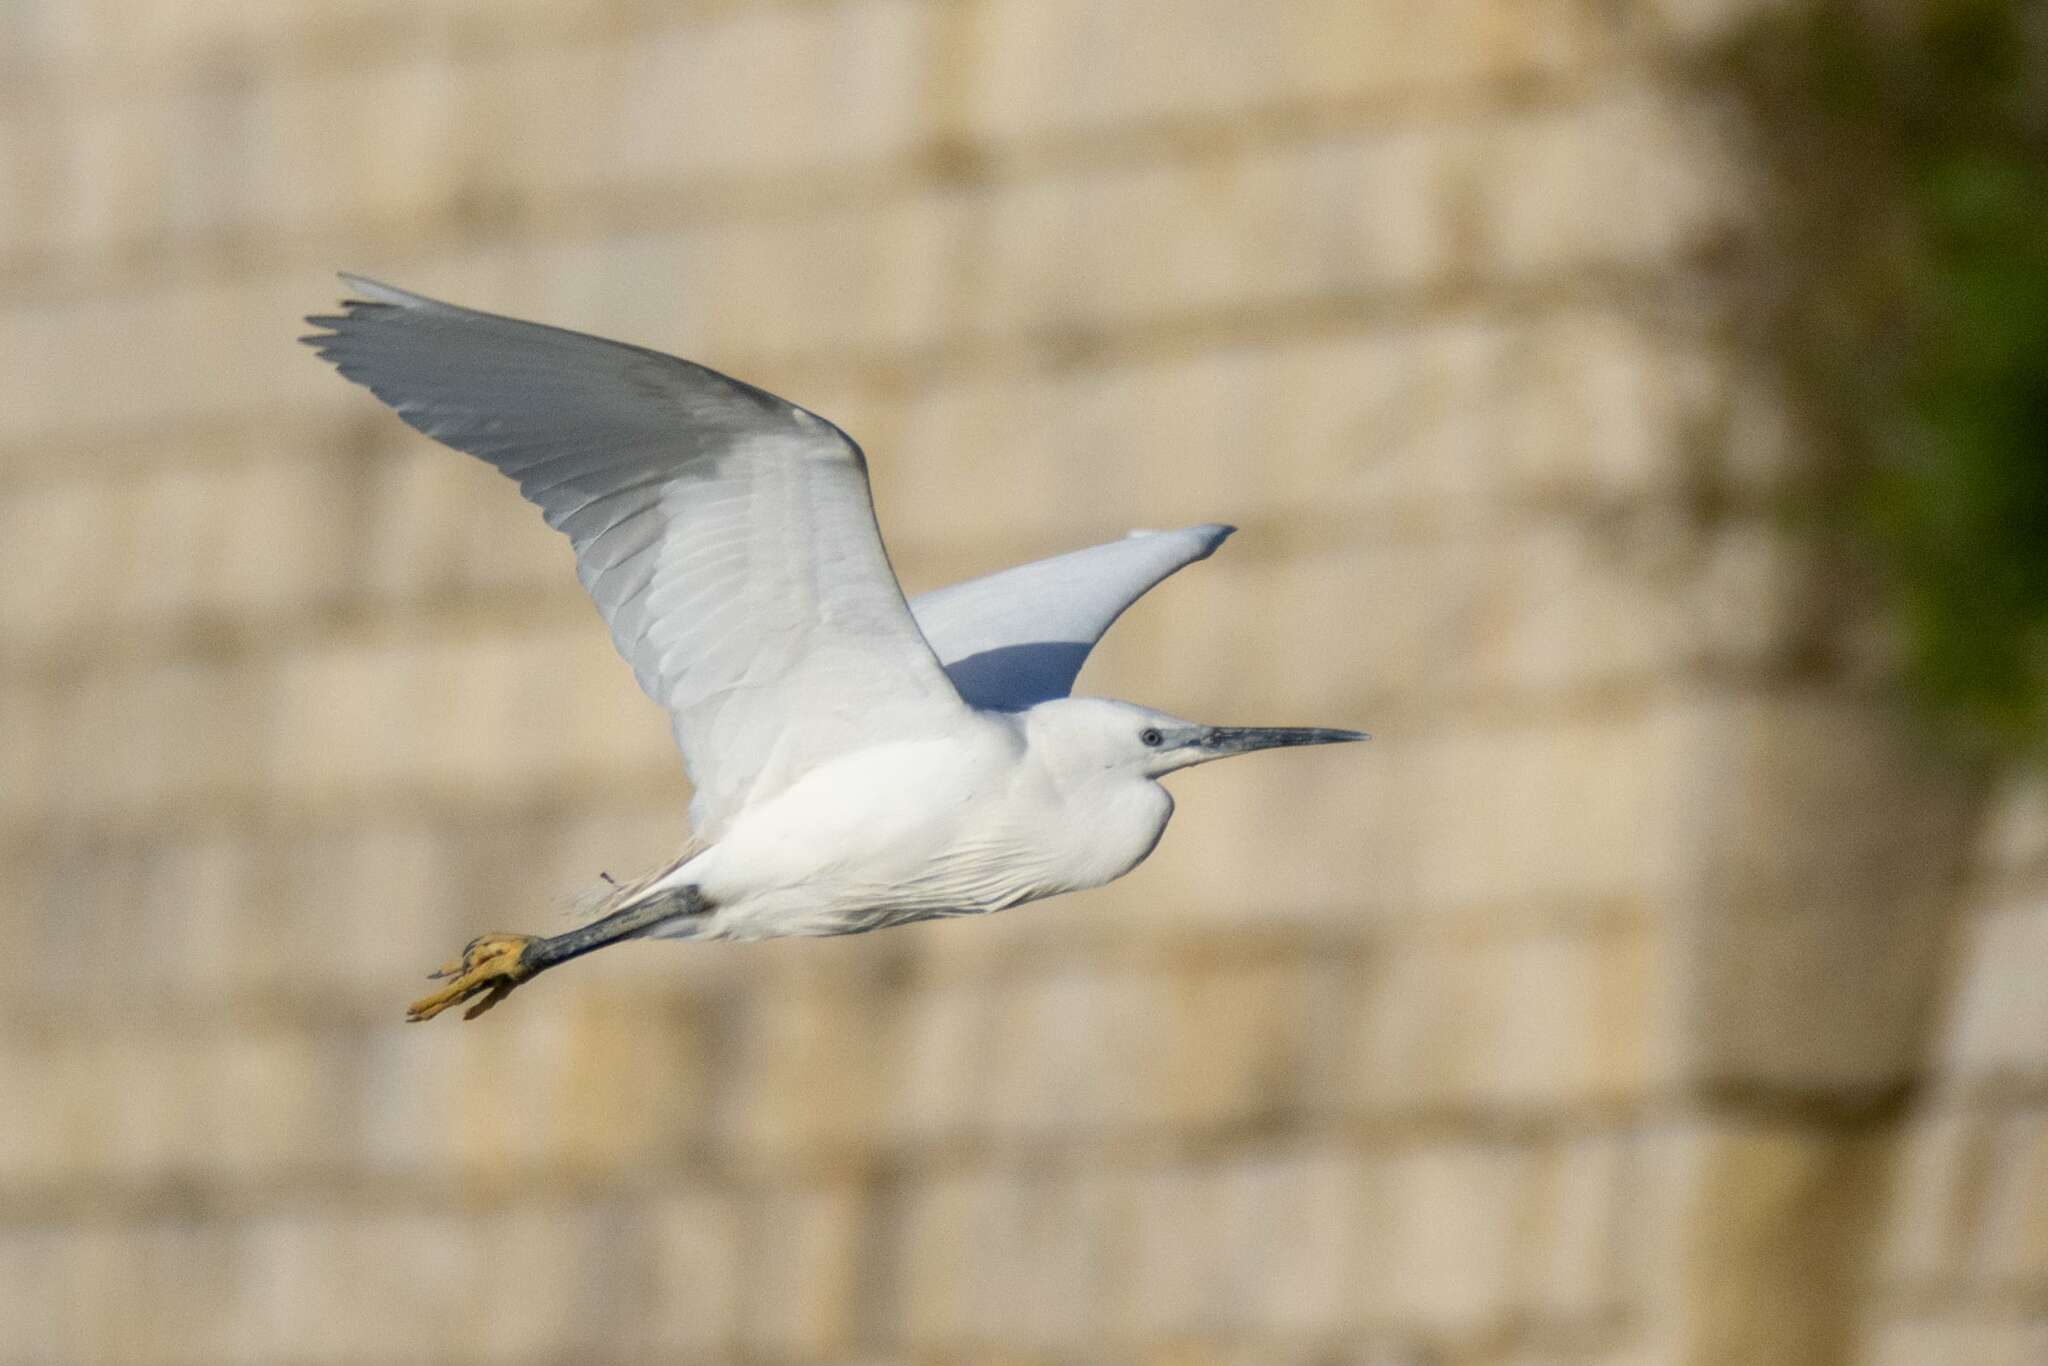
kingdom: Animalia
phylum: Chordata
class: Aves
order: Pelecaniformes
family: Ardeidae
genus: Egretta
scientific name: Egretta garzetta
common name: Little egret
